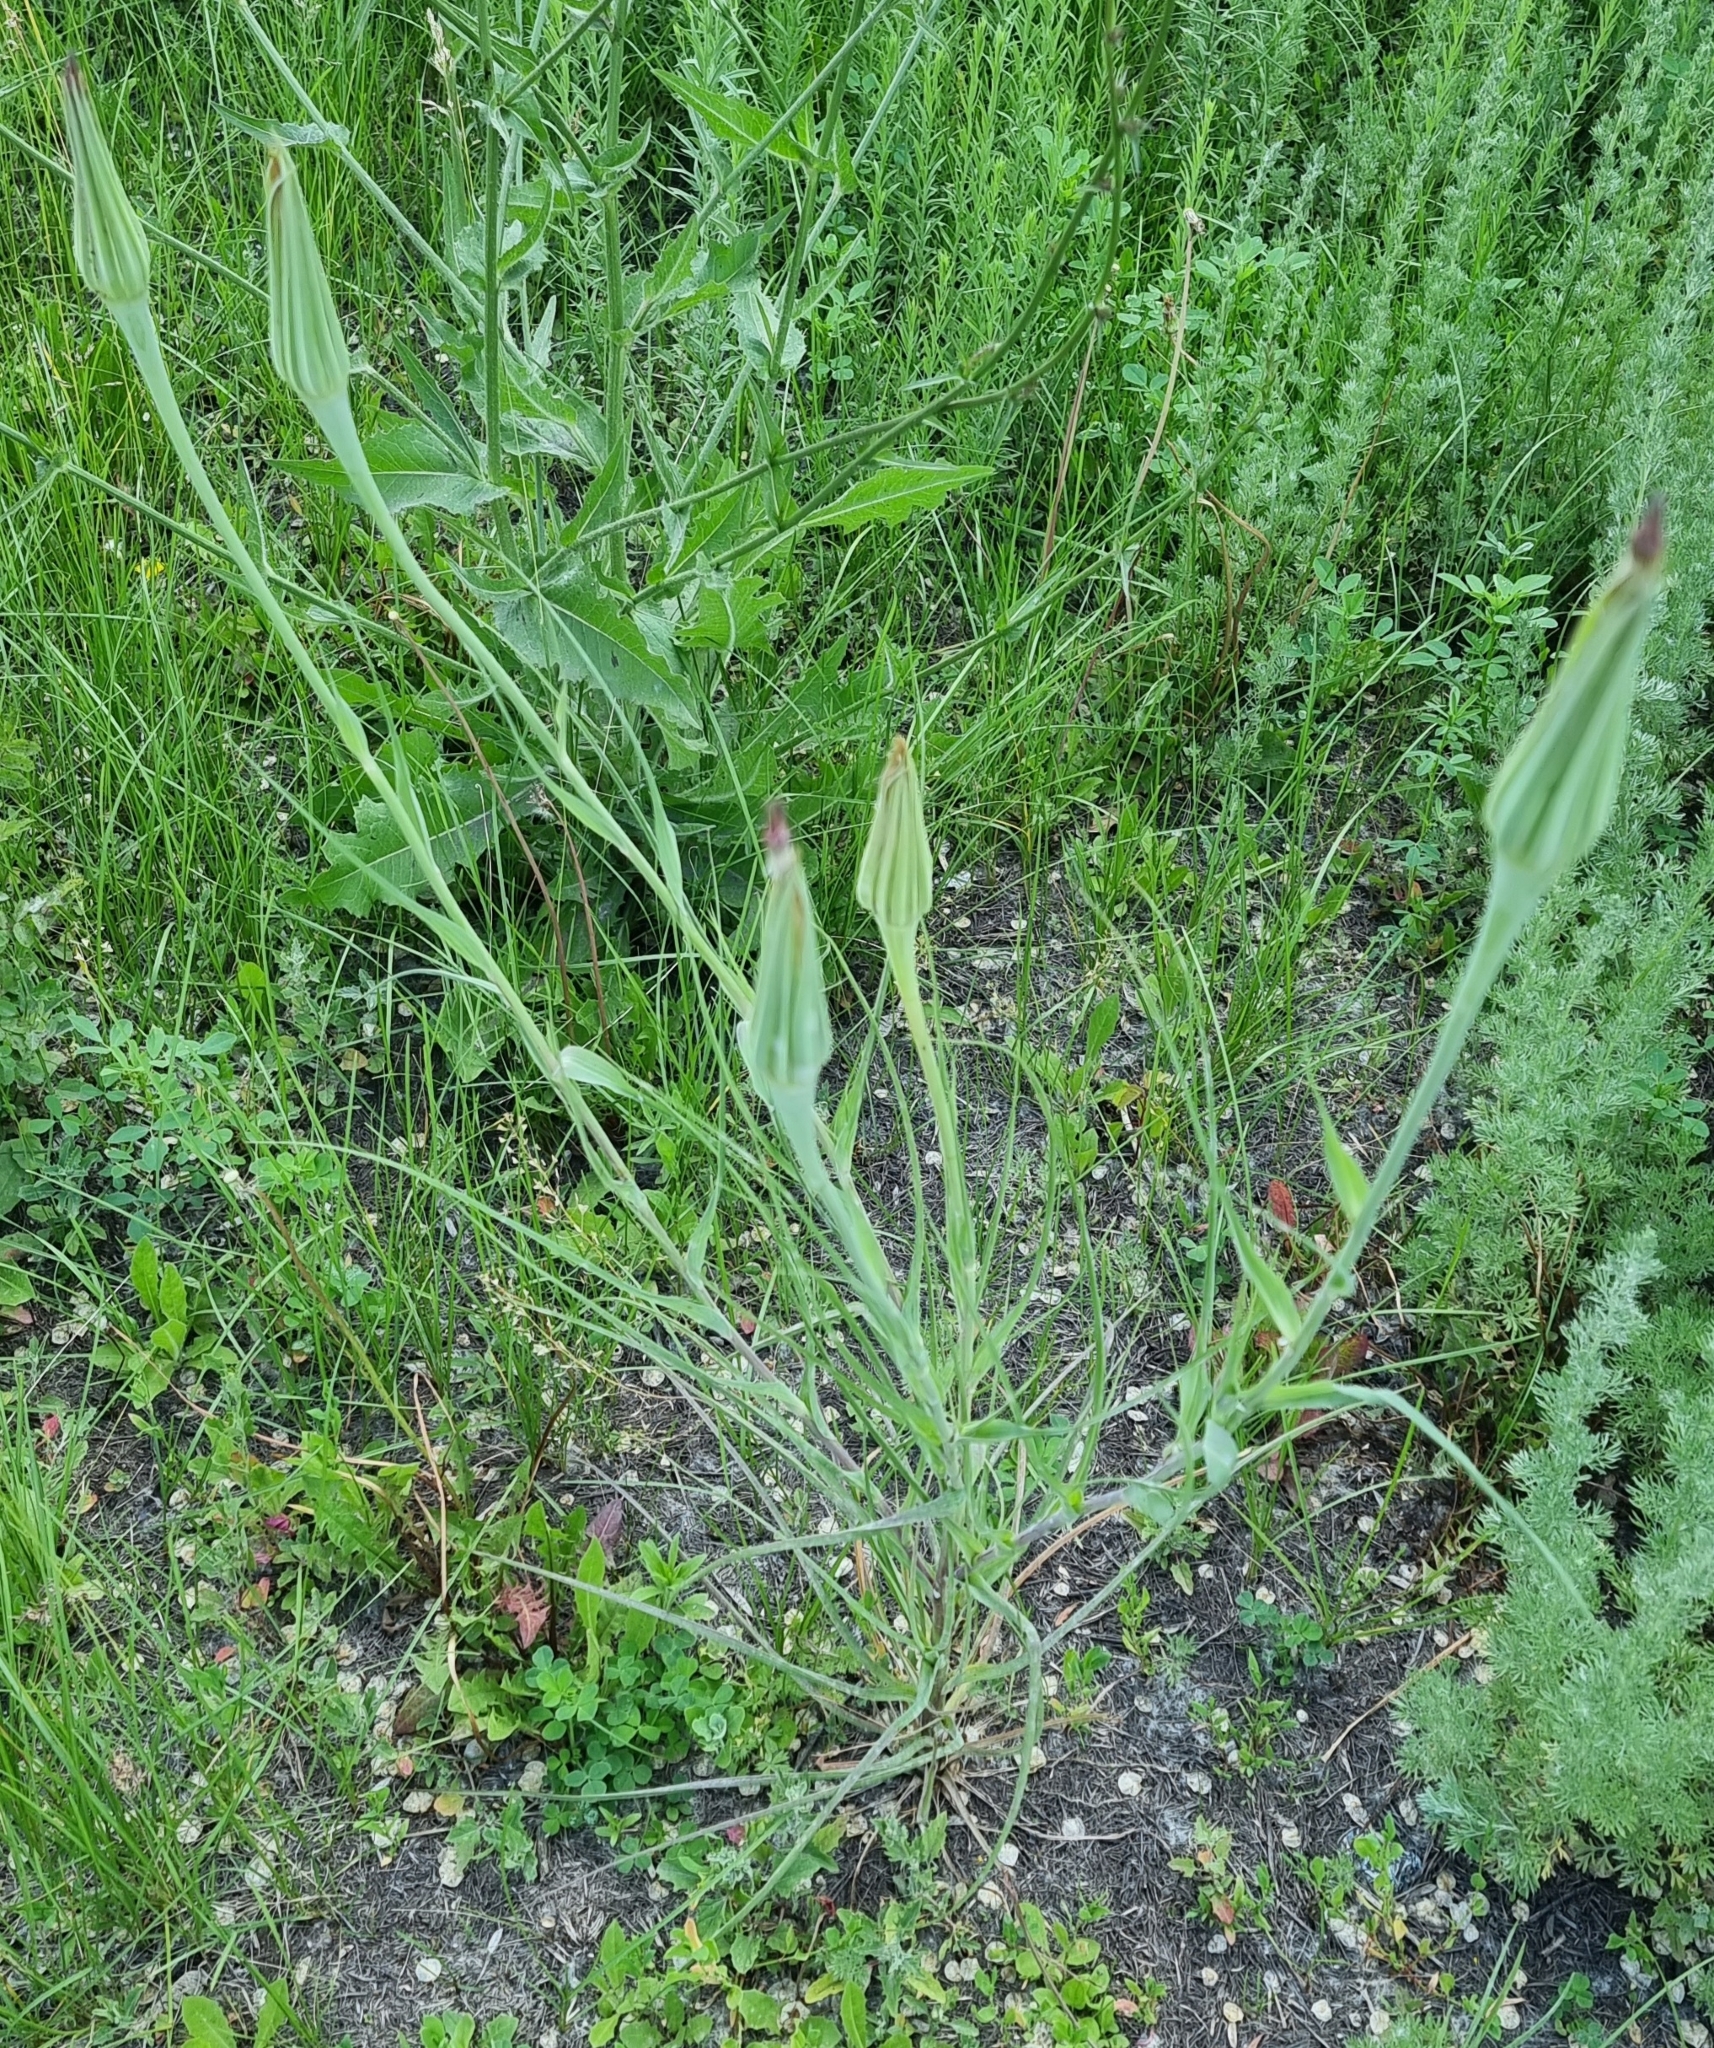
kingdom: Plantae
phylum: Tracheophyta
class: Magnoliopsida
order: Asterales
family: Asteraceae
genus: Tragopogon
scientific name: Tragopogon dubius
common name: Yellow salsify
